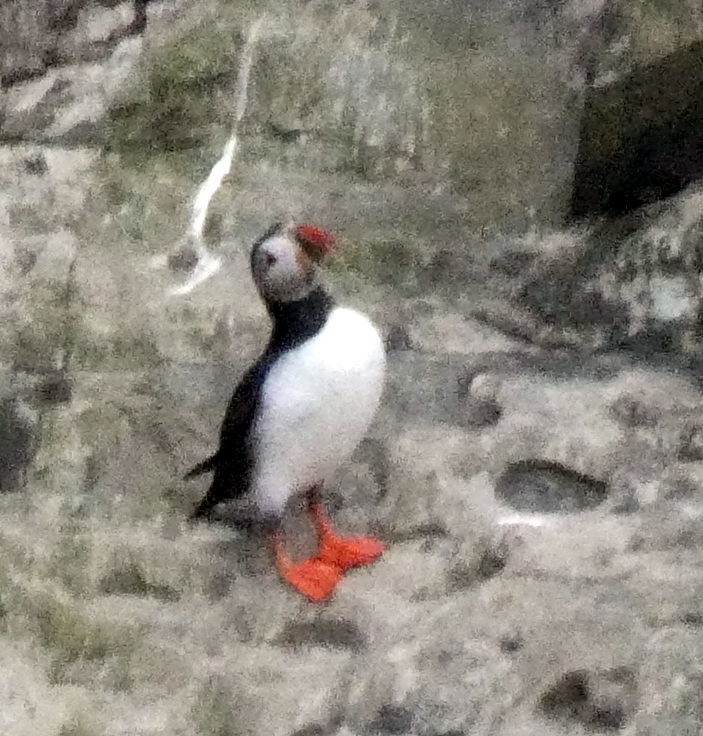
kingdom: Animalia
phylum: Chordata
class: Aves
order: Charadriiformes
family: Alcidae
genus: Fratercula
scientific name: Fratercula arctica
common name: Atlantic puffin
